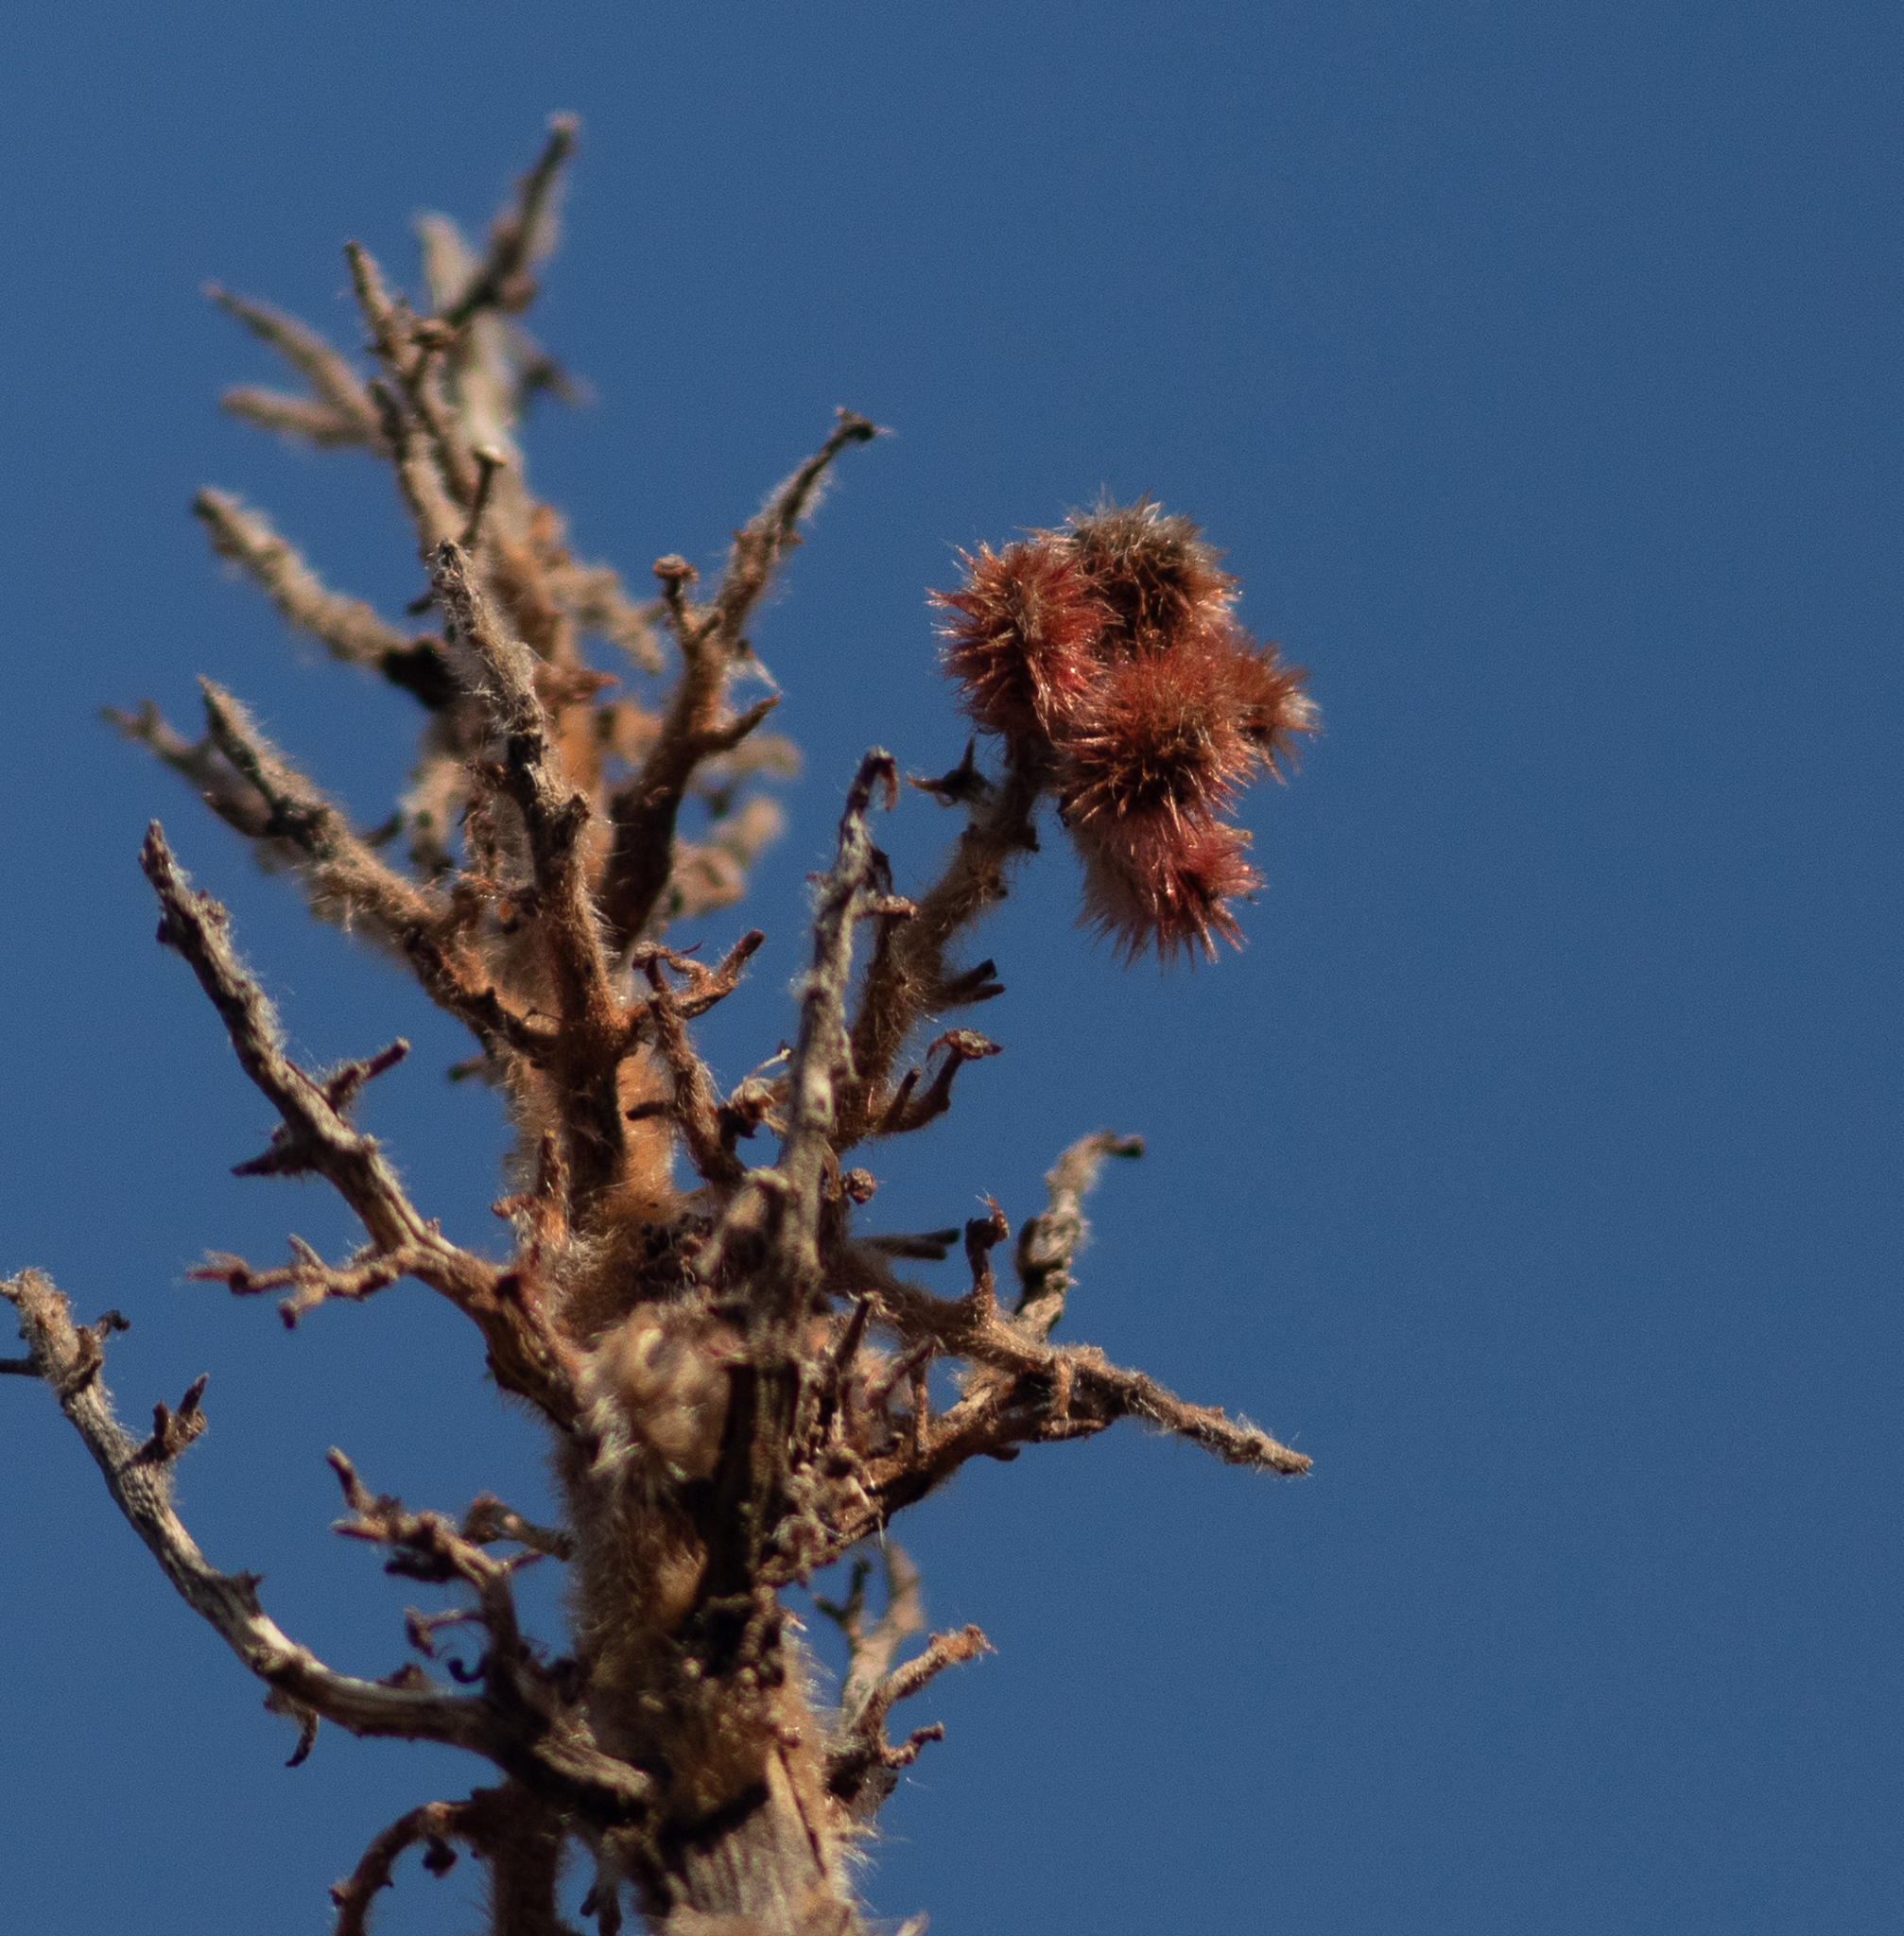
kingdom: Plantae
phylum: Tracheophyta
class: Magnoliopsida
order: Sapindales
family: Anacardiaceae
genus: Rhus
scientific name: Rhus typhina
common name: Staghorn sumac
